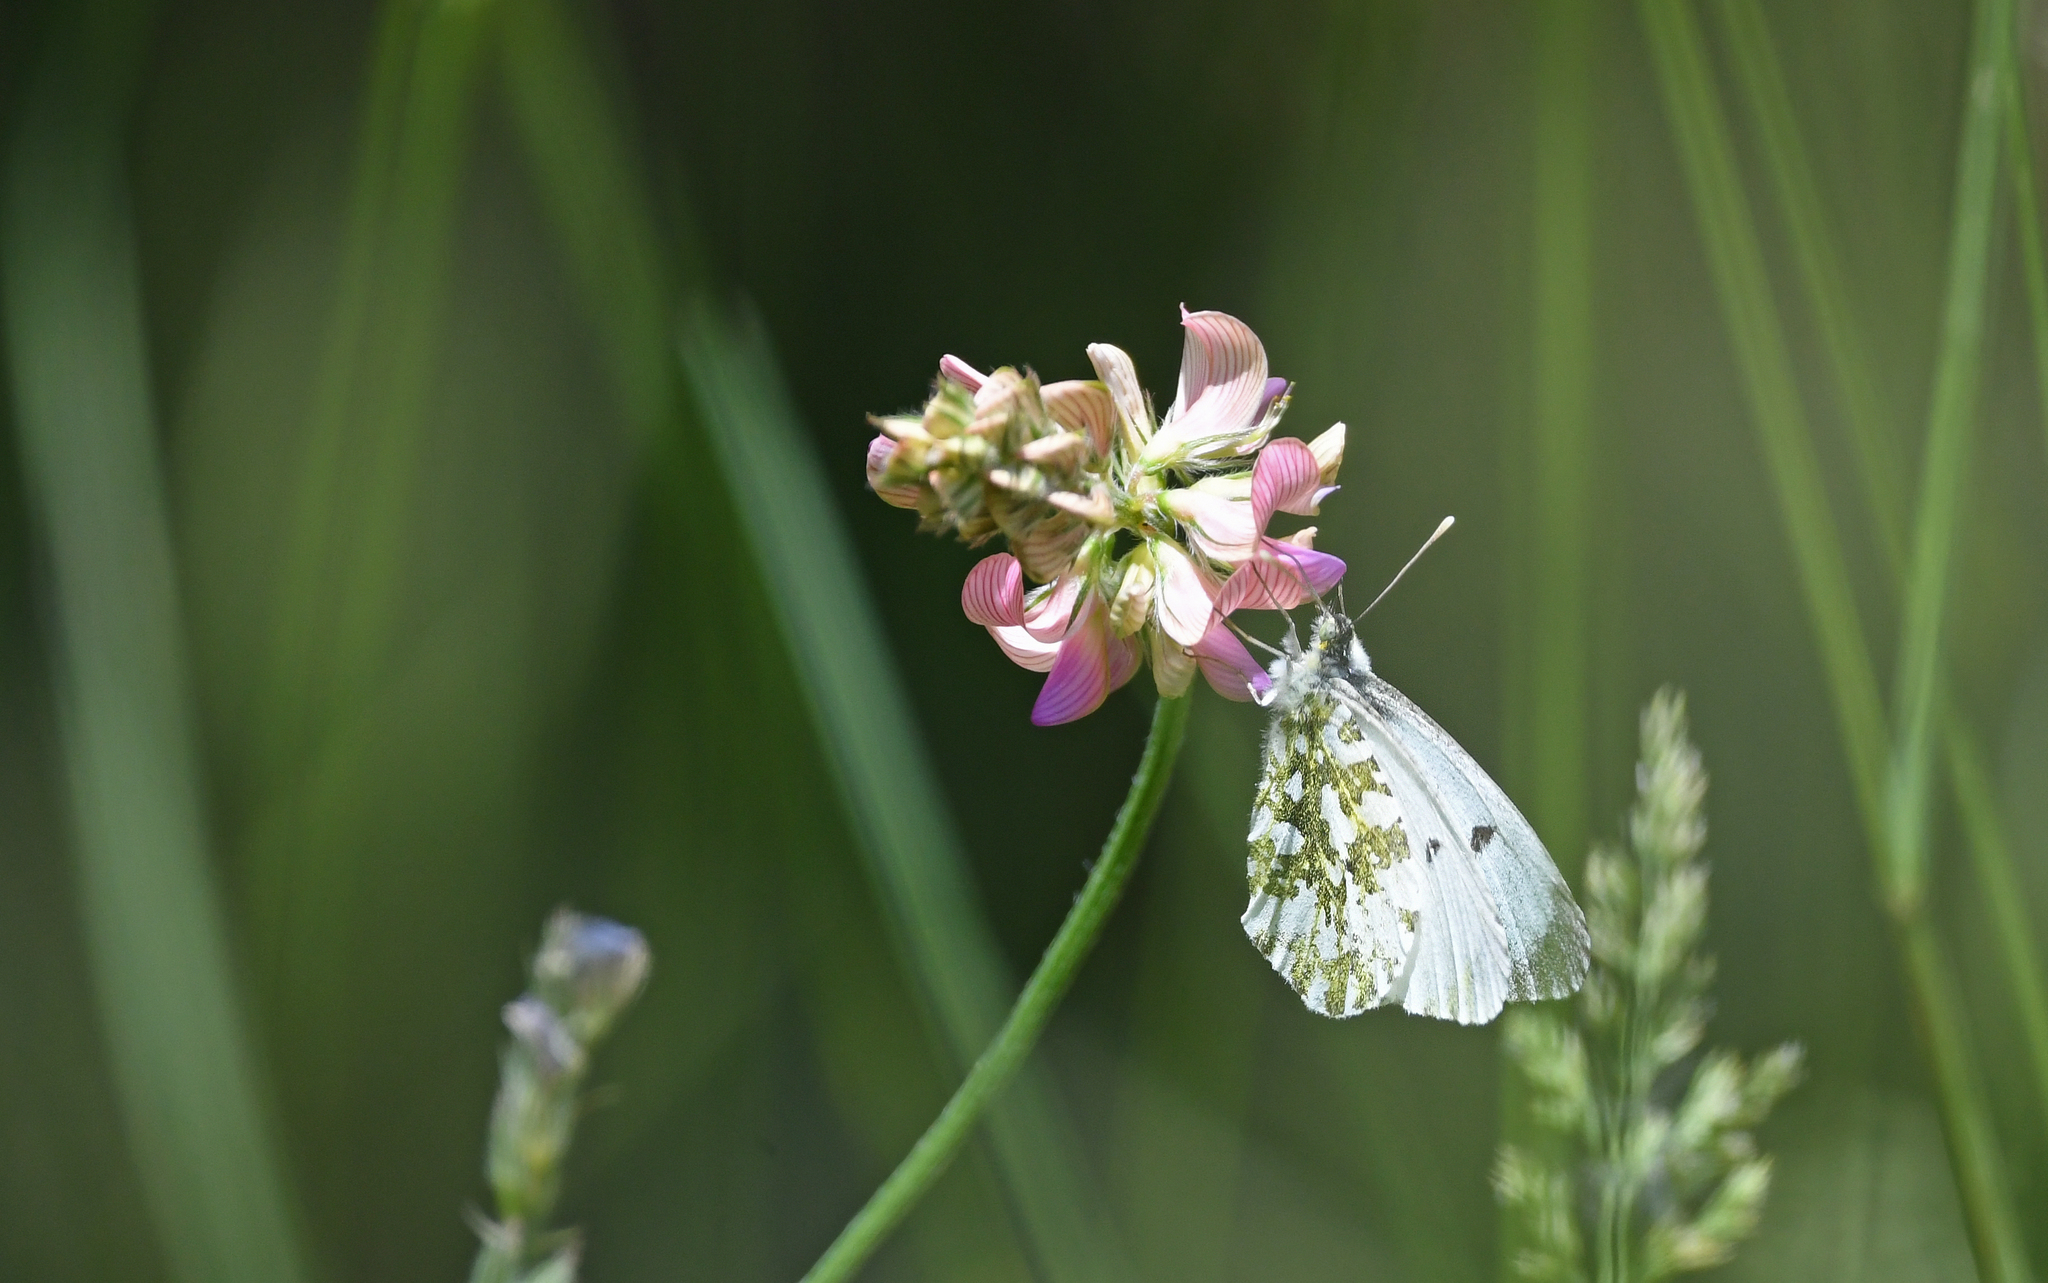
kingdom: Animalia
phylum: Arthropoda
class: Insecta
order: Lepidoptera
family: Pieridae
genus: Anthocharis
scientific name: Anthocharis cardamines
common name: Orange-tip
